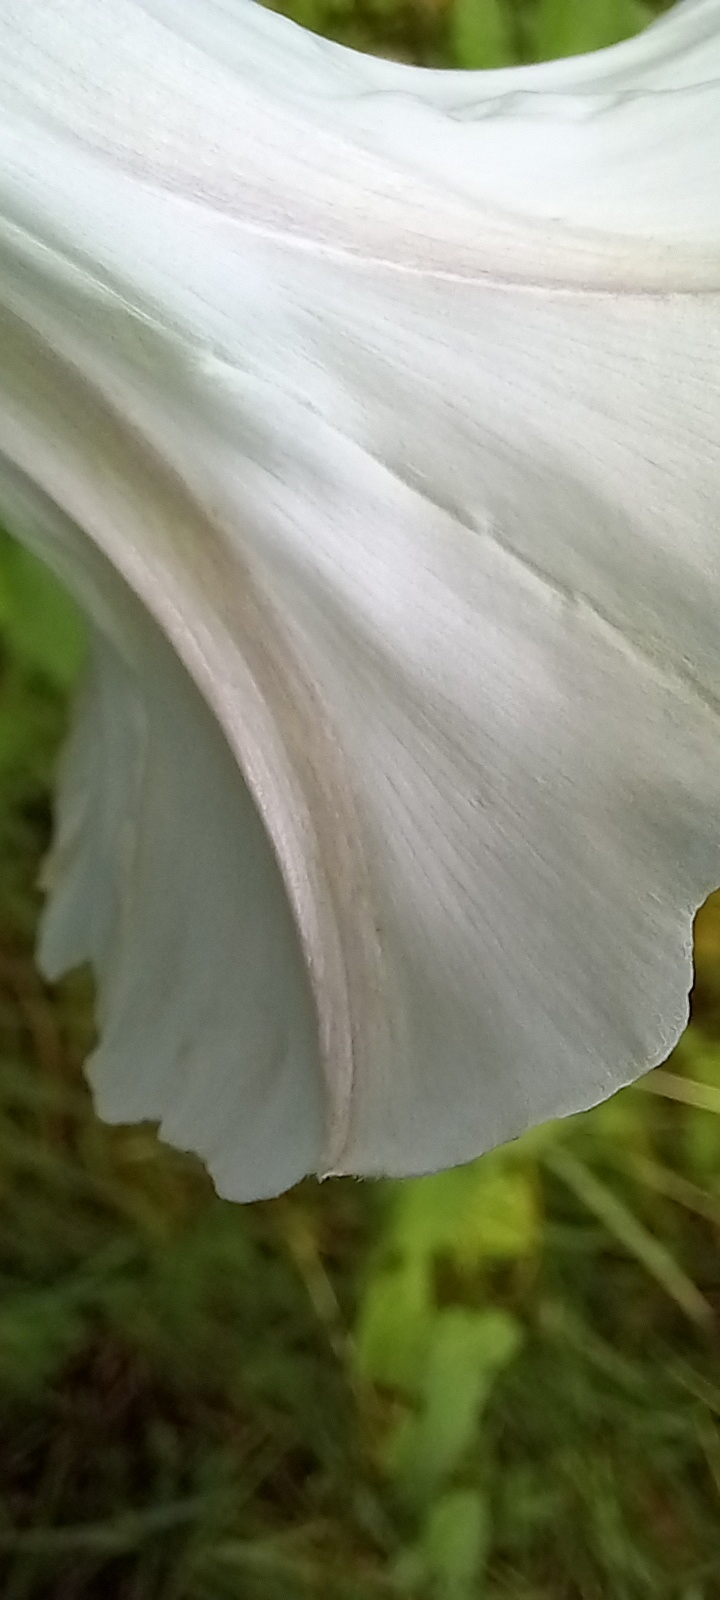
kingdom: Plantae
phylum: Tracheophyta
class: Magnoliopsida
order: Solanales
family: Convolvulaceae
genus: Calystegia
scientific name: Calystegia silvatica
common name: Large bindweed
